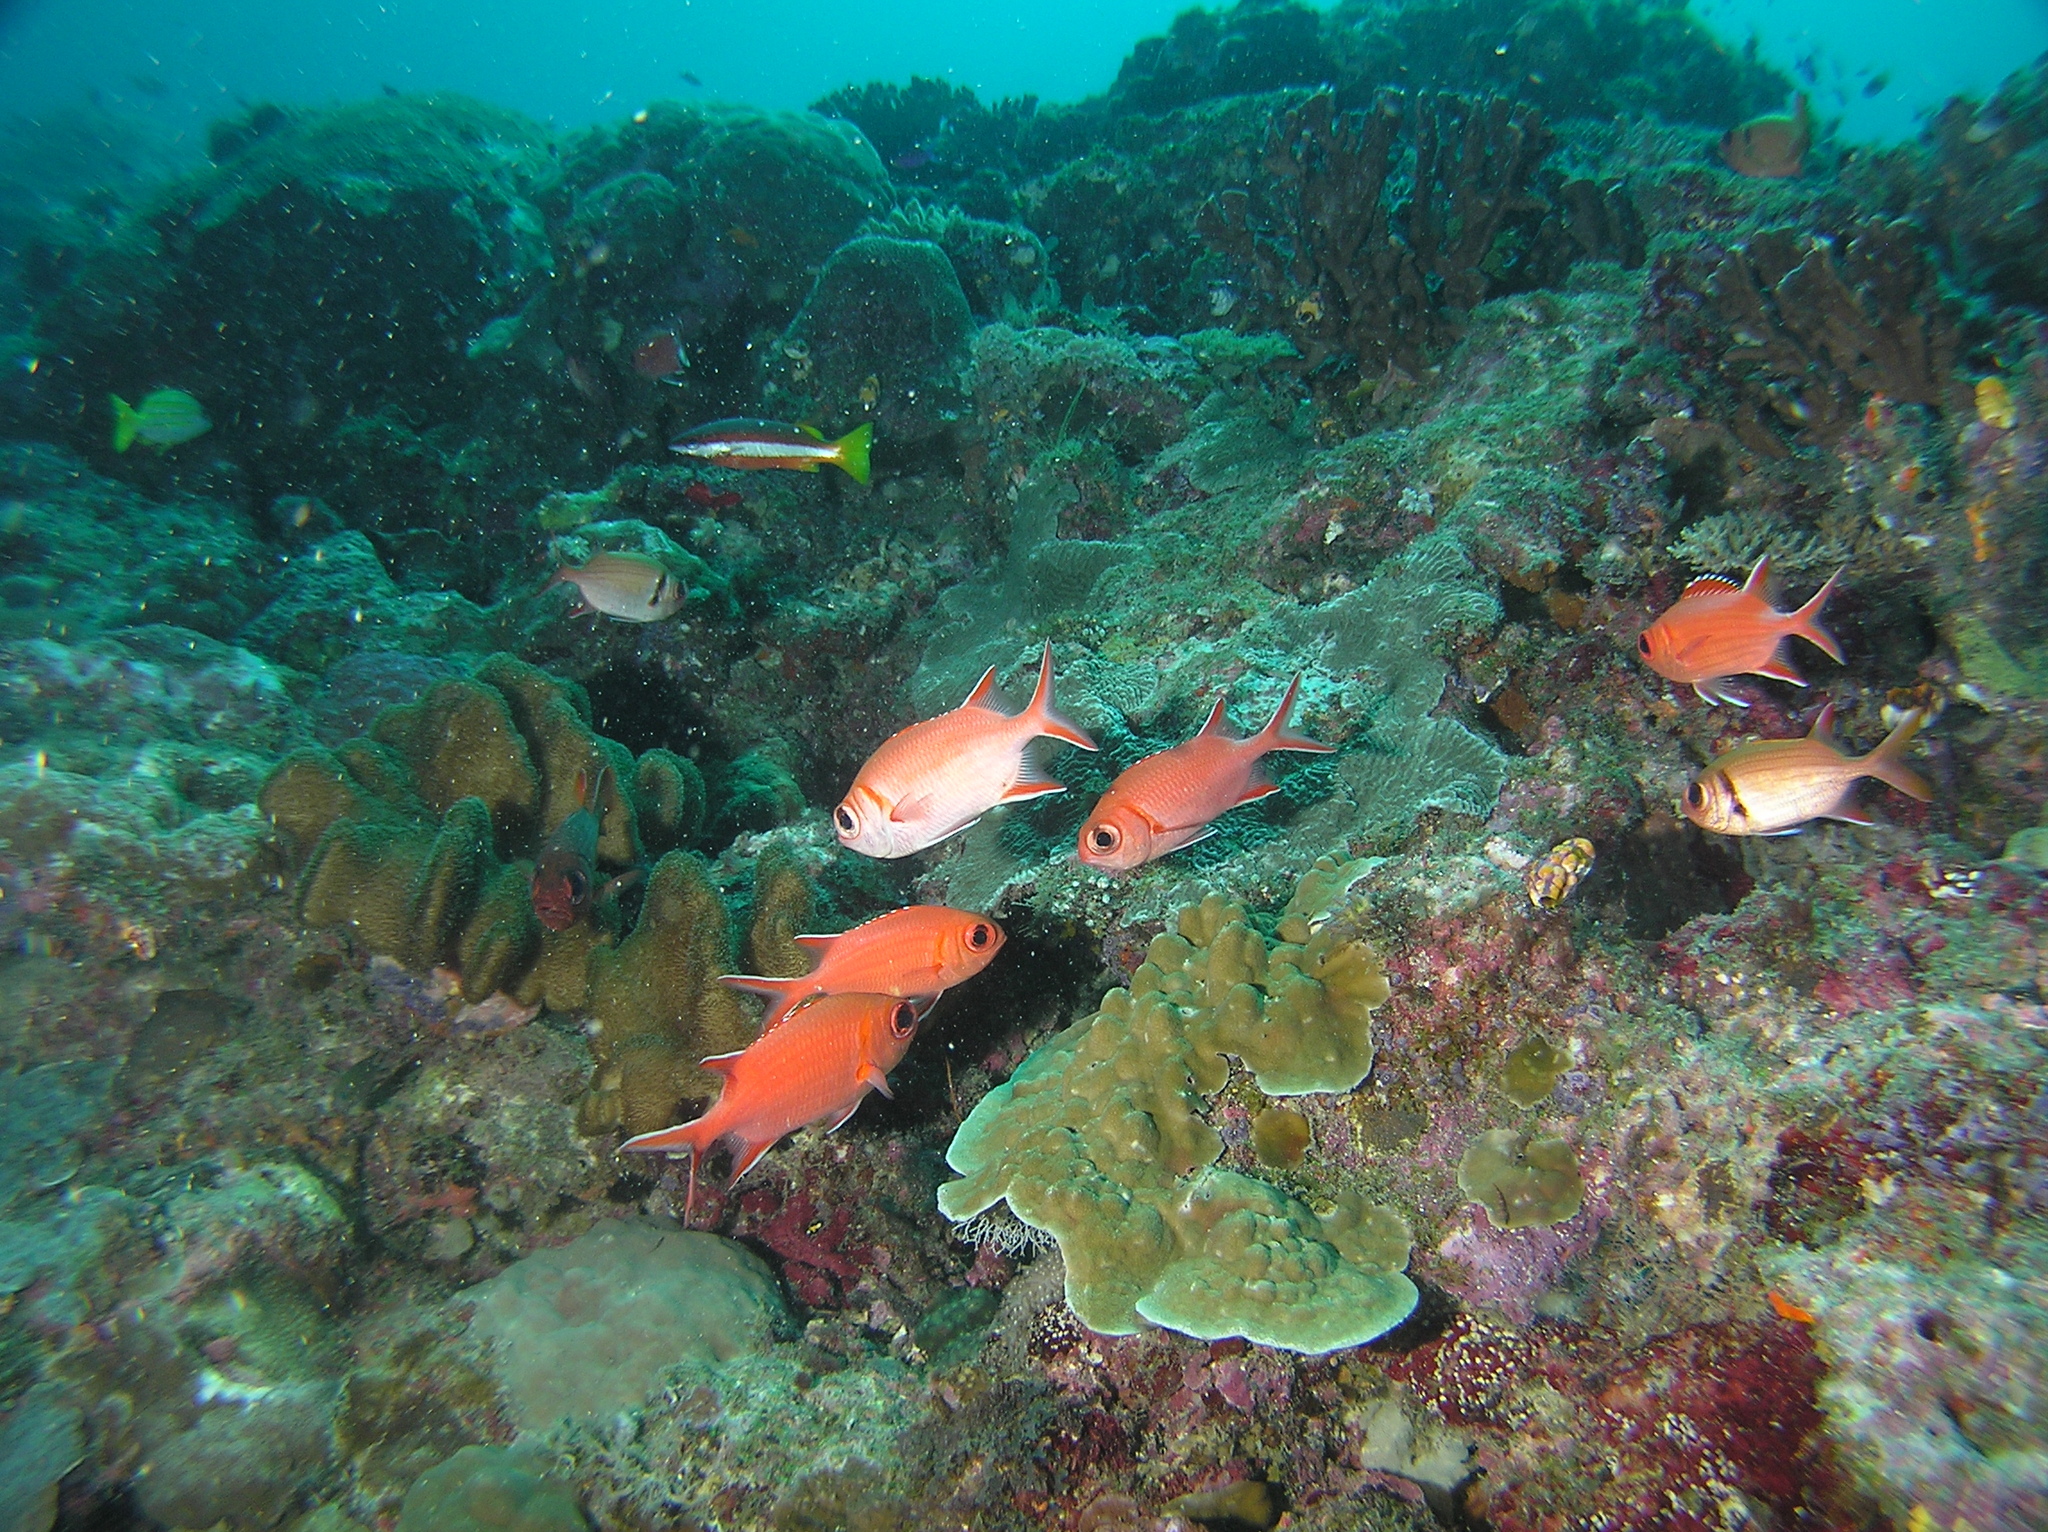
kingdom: Animalia
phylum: Chordata
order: Beryciformes
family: Holocentridae
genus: Myripristis
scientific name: Myripristis vittata
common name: Immaculate squirrelfish
